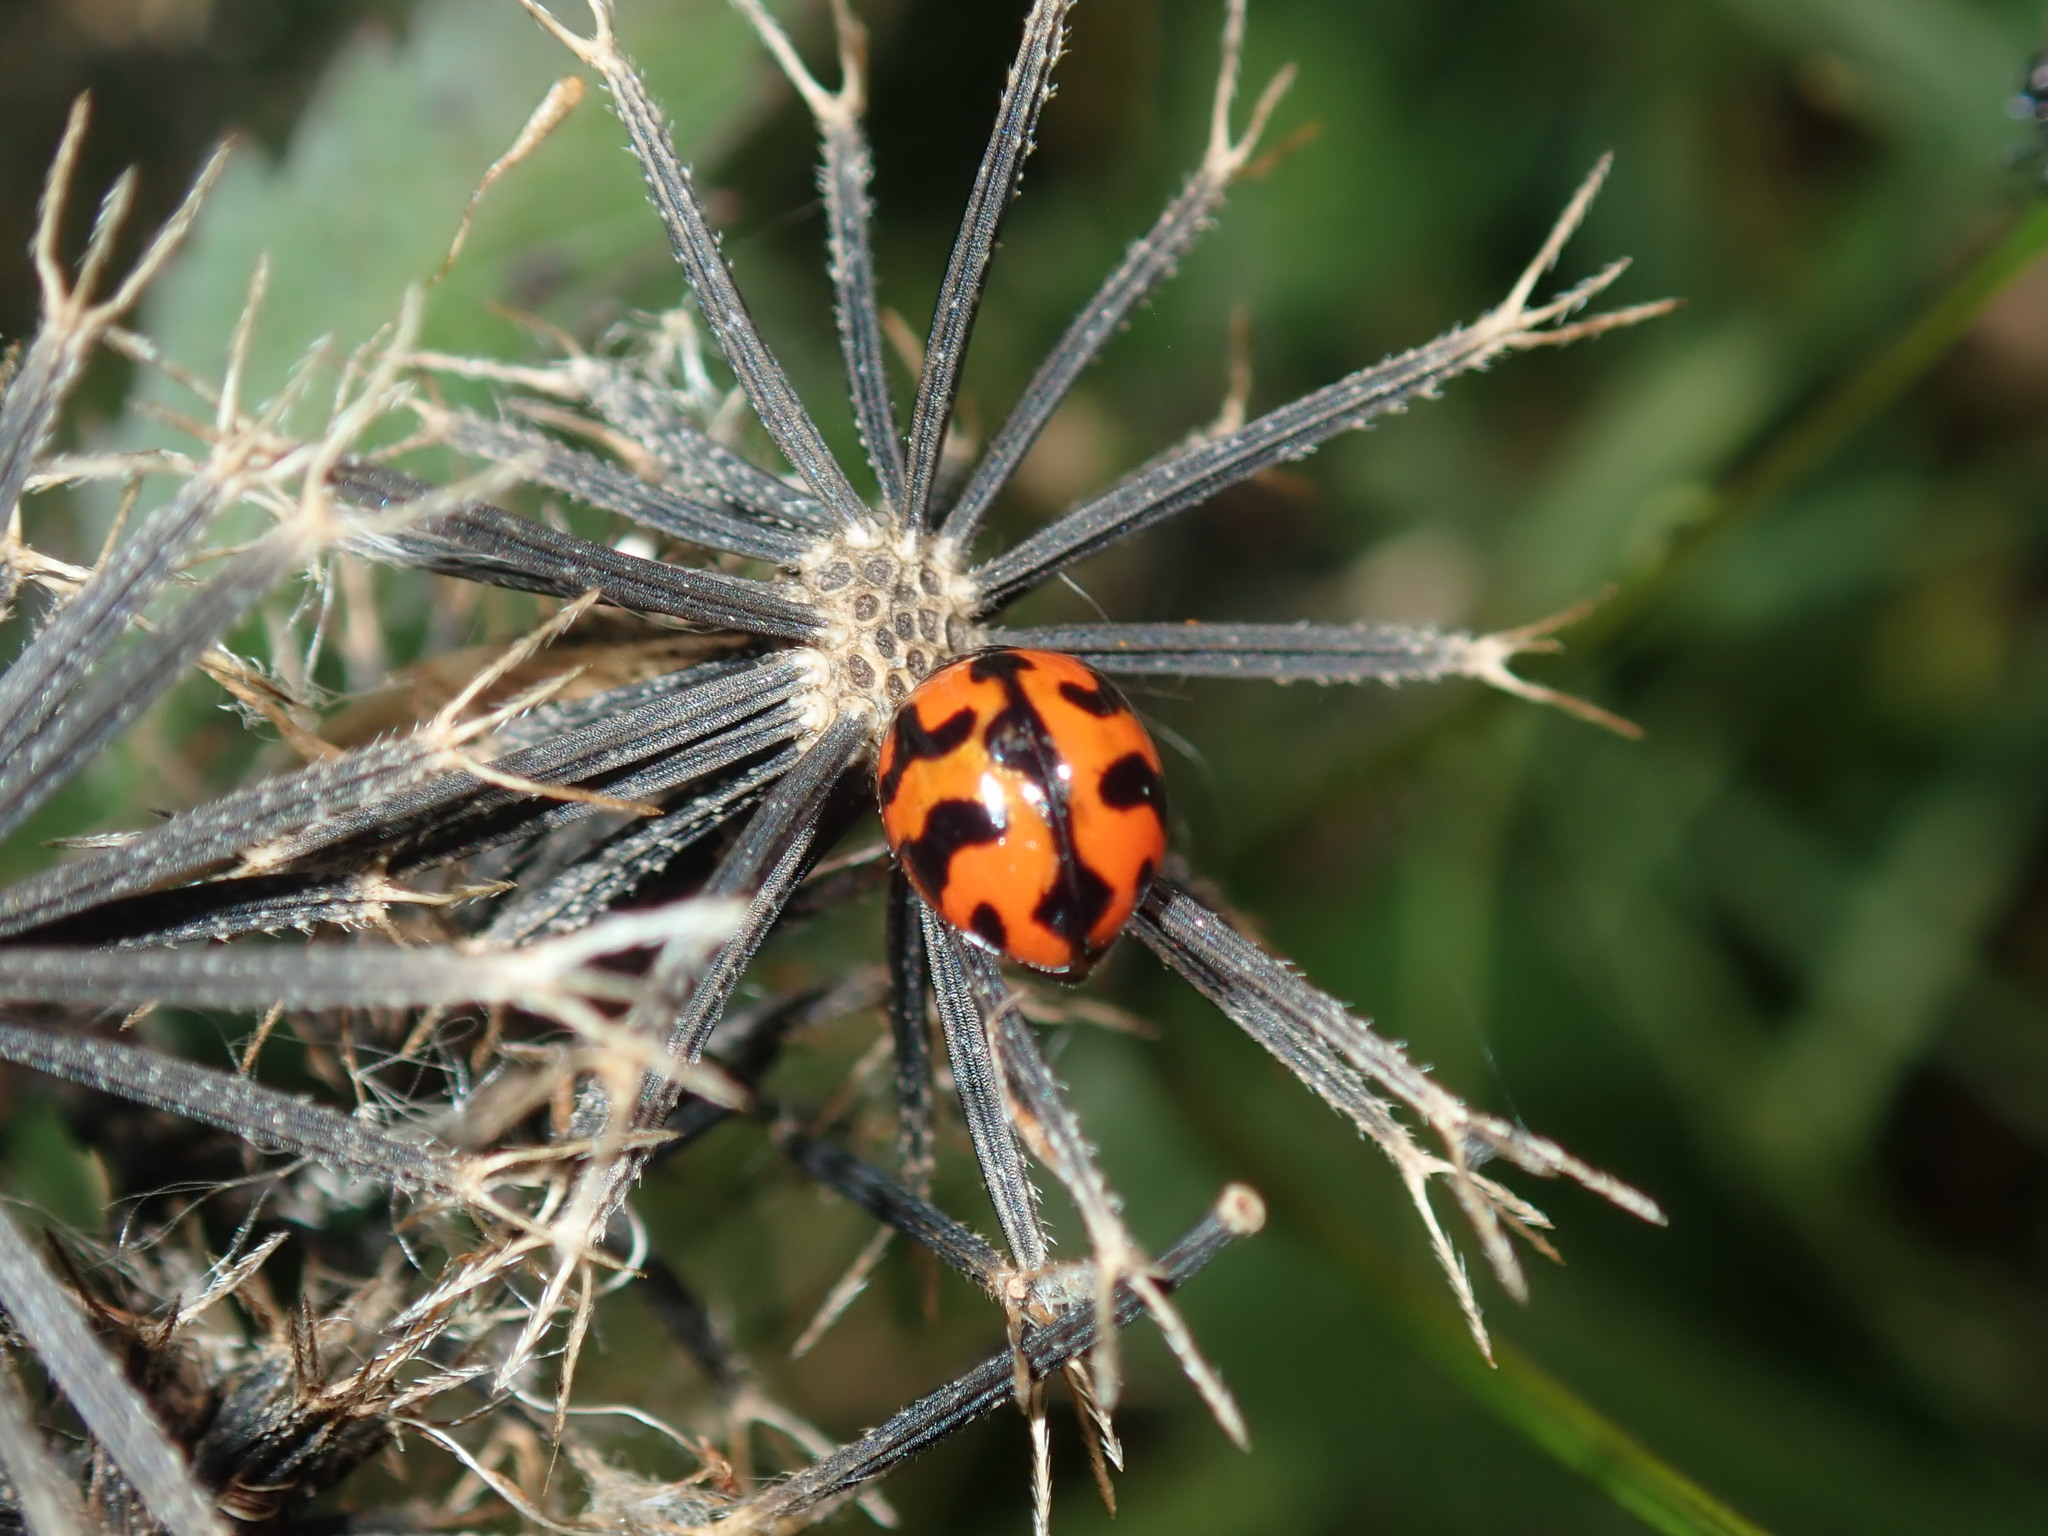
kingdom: Animalia
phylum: Arthropoda
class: Insecta
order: Coleoptera
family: Coccinellidae
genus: Coccinella
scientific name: Coccinella transversalis
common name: Transverse lady beetle
